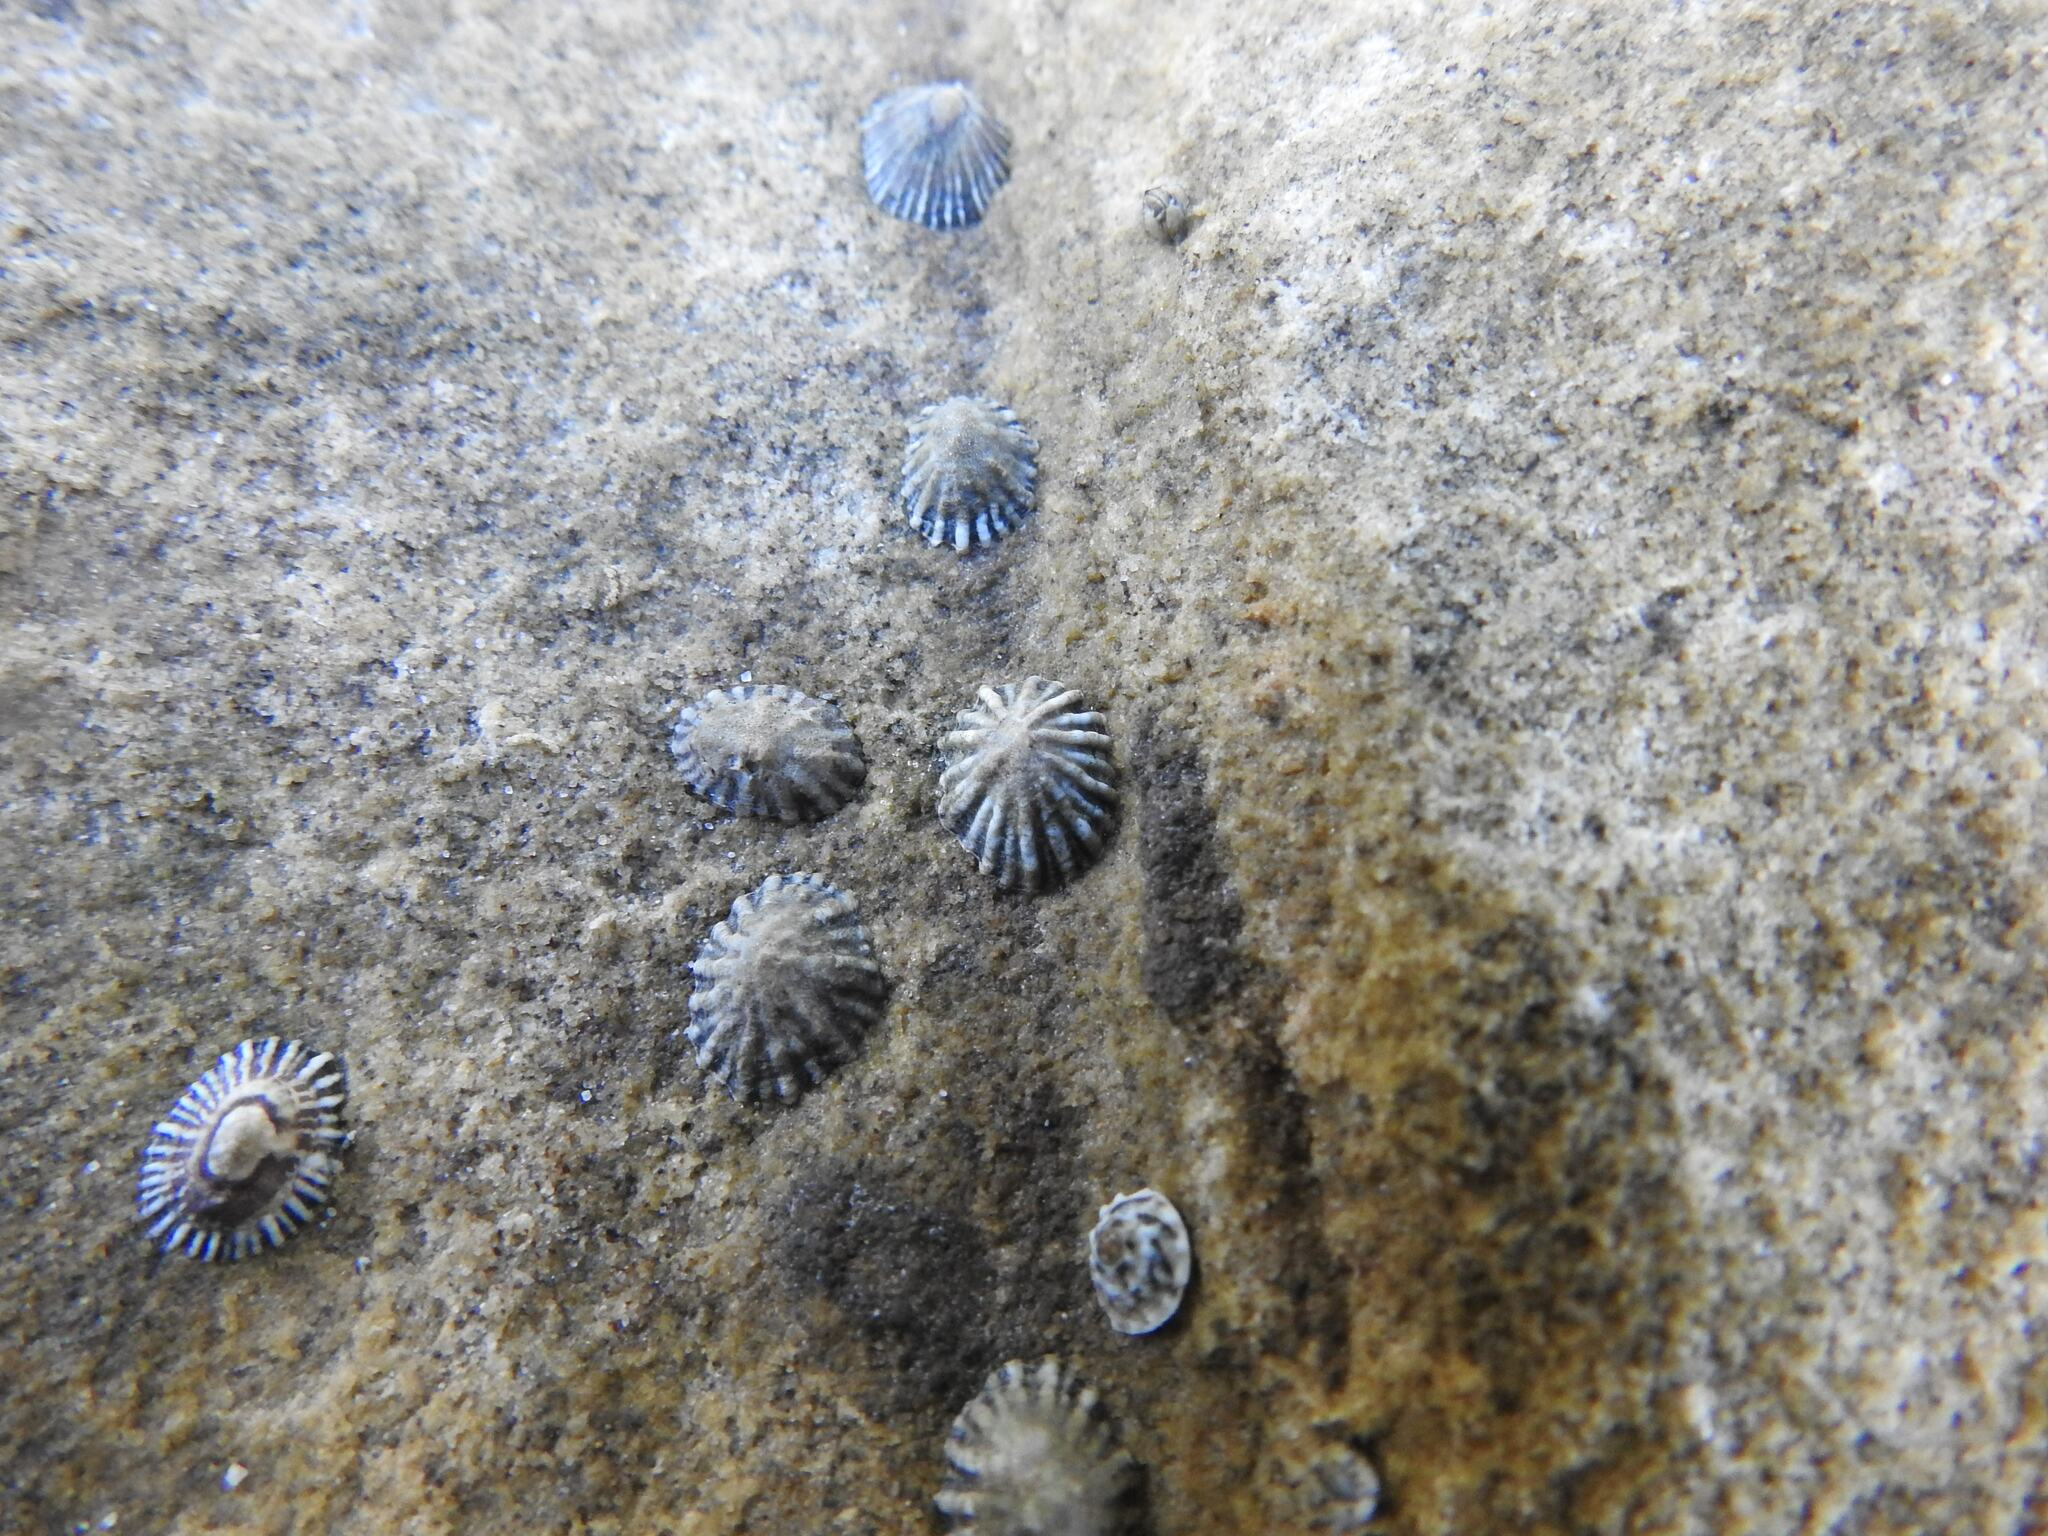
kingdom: Animalia
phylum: Mollusca
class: Gastropoda
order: Siphonariida
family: Siphonariidae
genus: Siphonaria
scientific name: Siphonaria diemenensis
